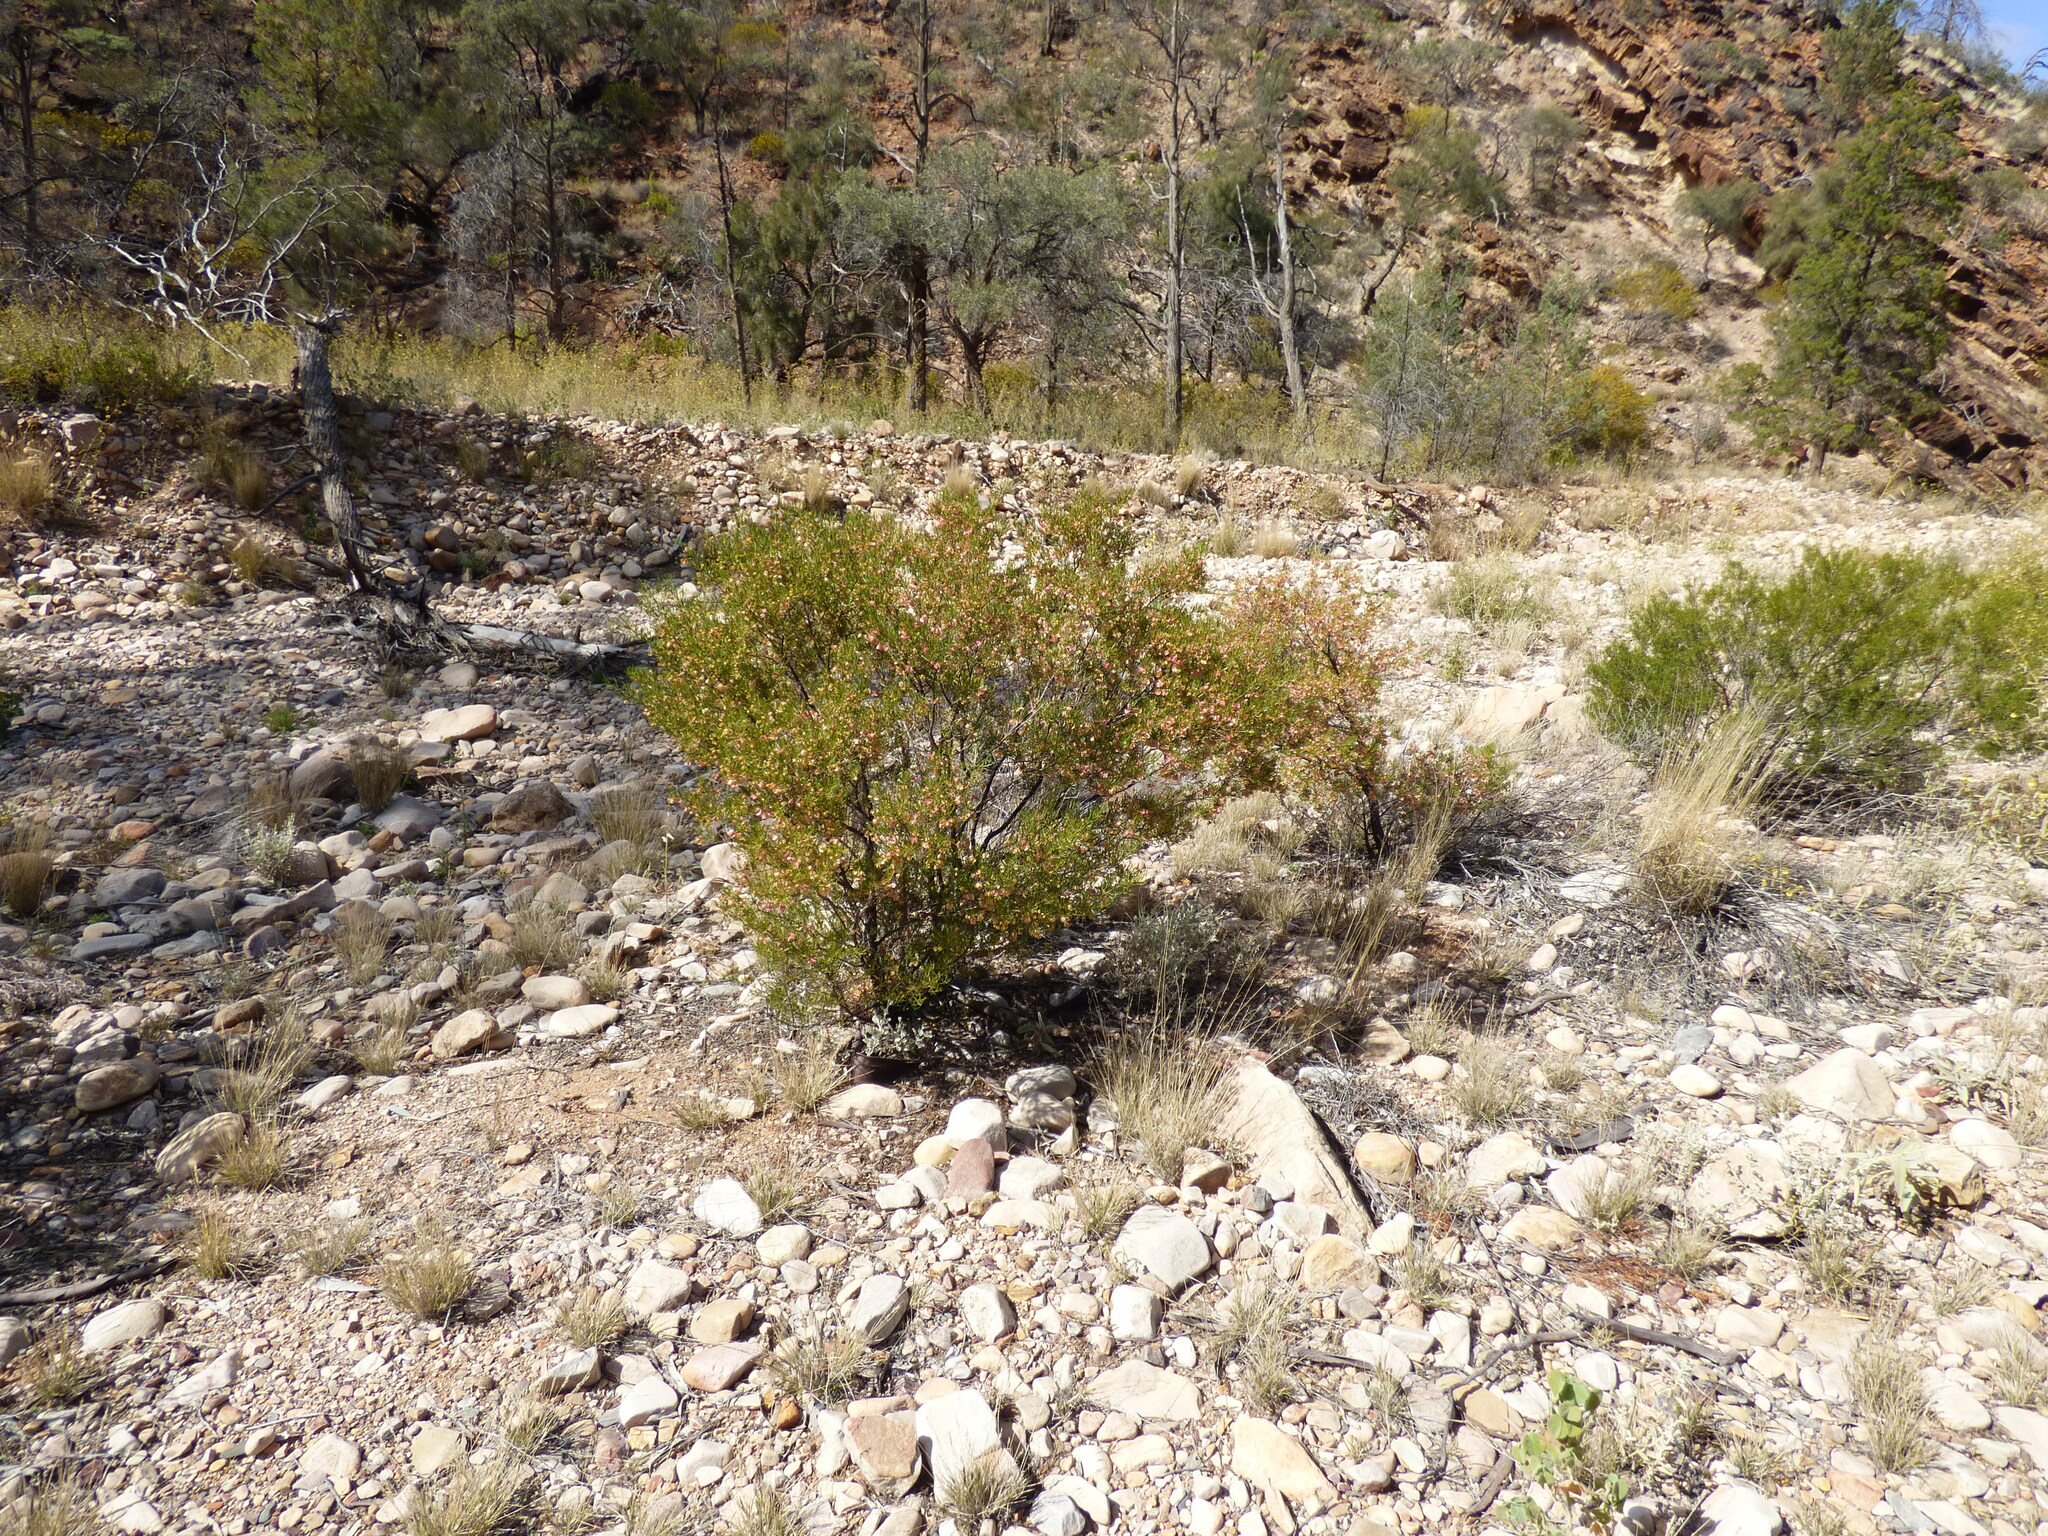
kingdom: Plantae
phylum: Tracheophyta
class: Magnoliopsida
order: Sapindales
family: Sapindaceae
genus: Dodonaea
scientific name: Dodonaea lobulata
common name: Lobe-leaf hopbush
